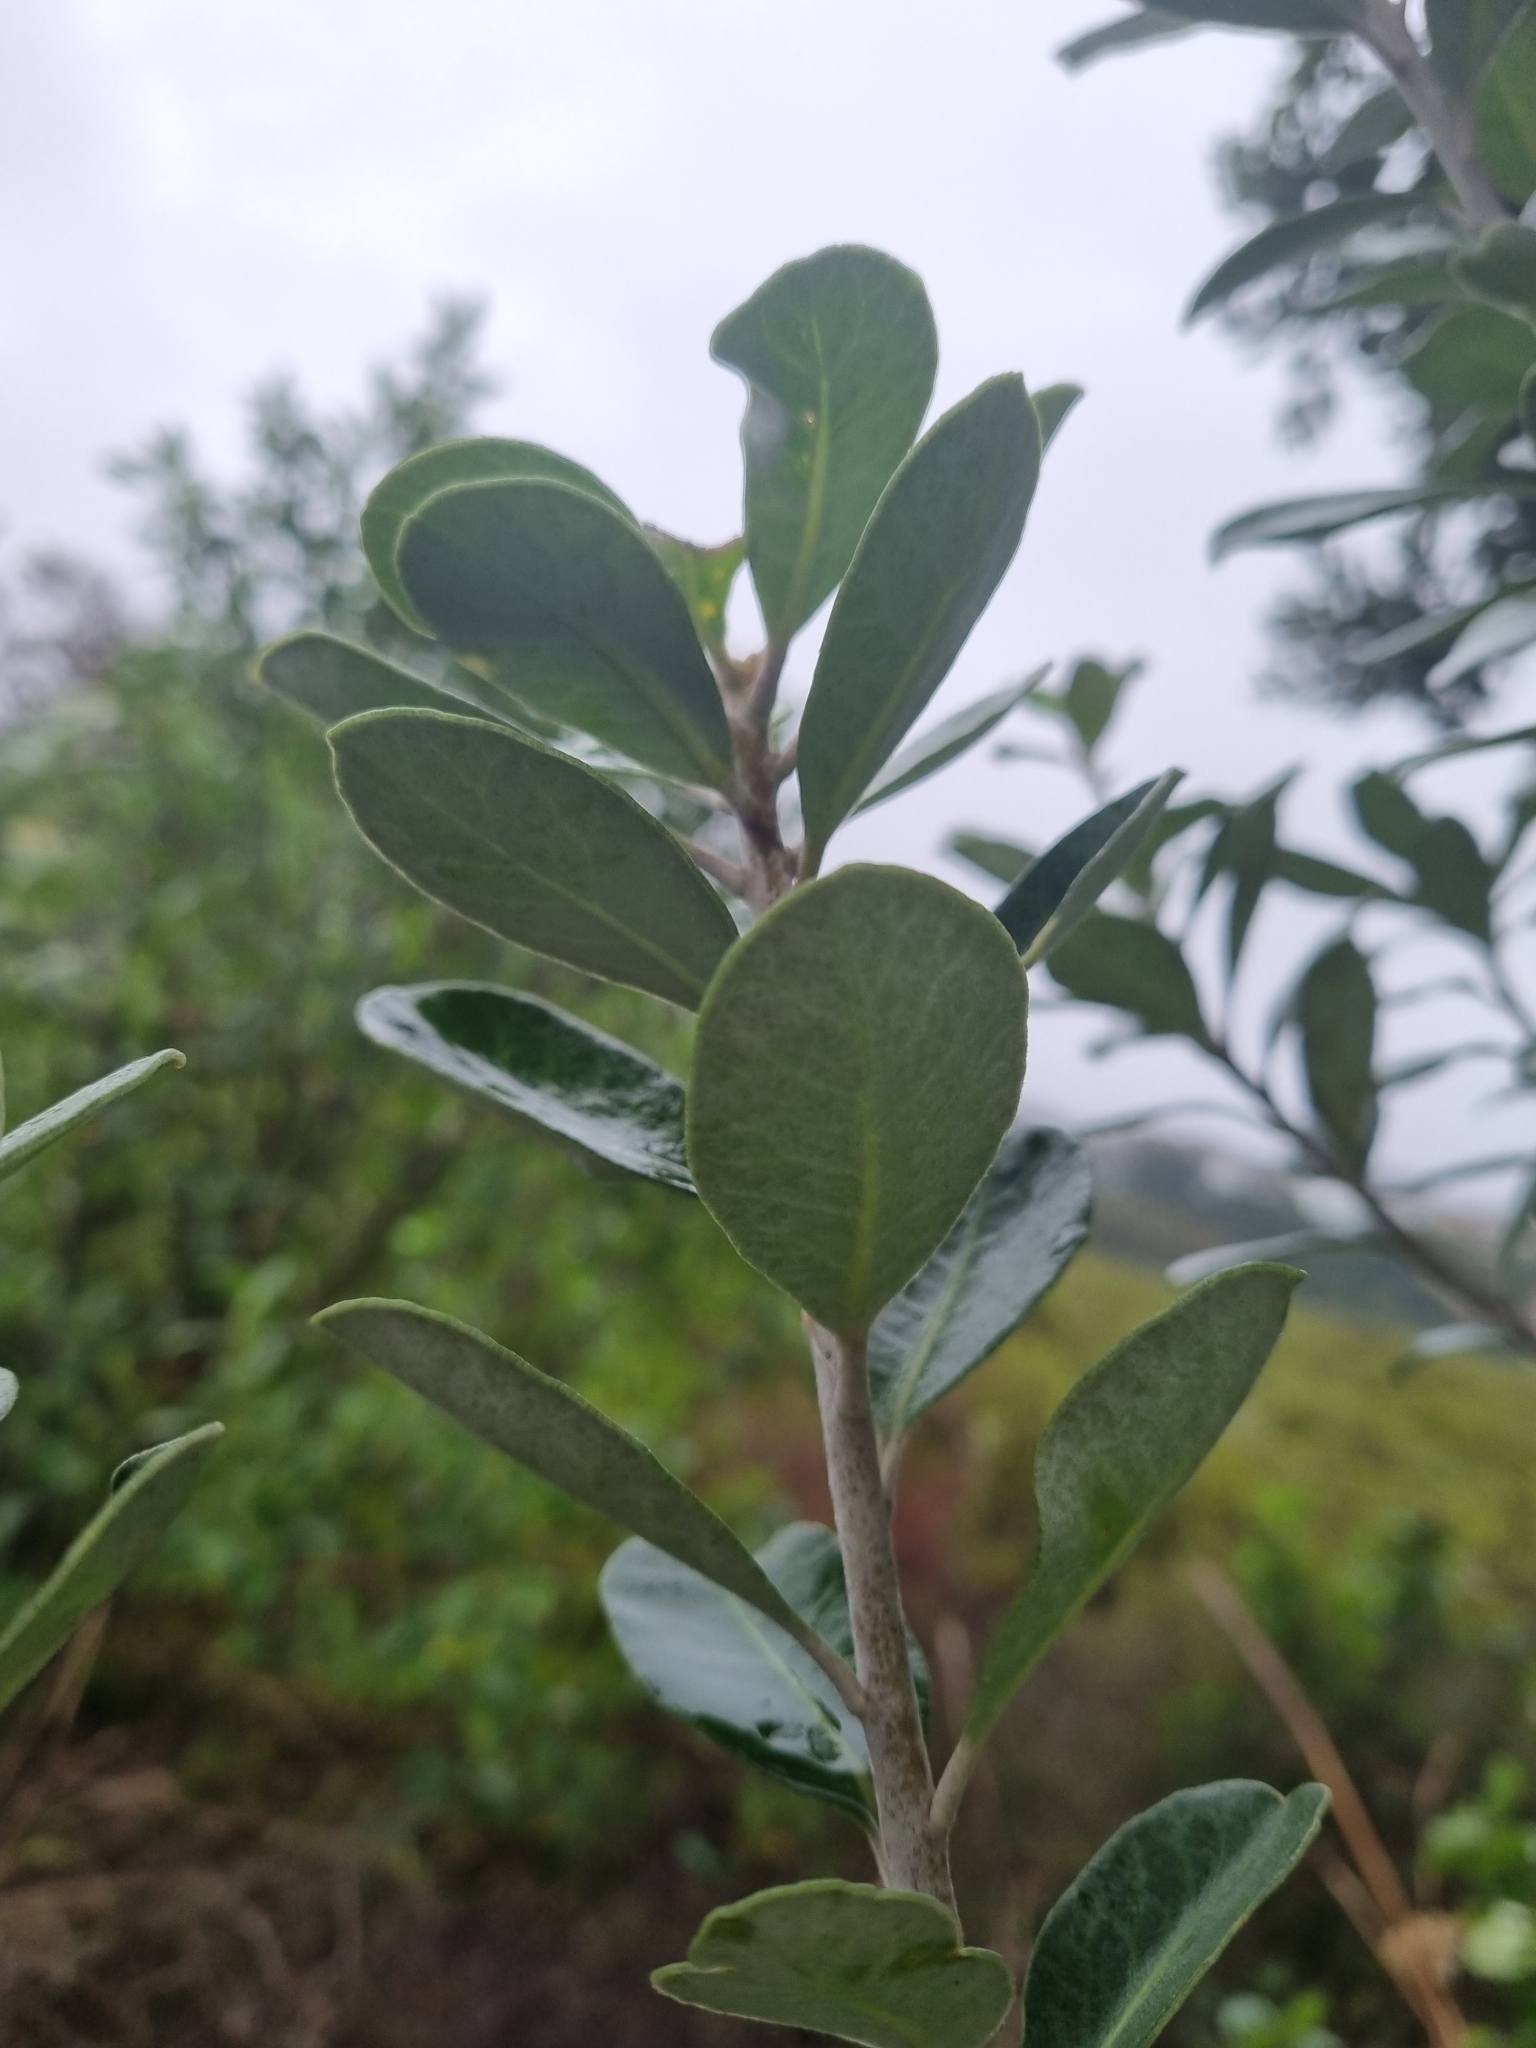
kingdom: Plantae
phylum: Tracheophyta
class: Magnoliopsida
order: Apiales
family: Pittosporaceae
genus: Pittosporum
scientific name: Pittosporum crassifolium
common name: Karo
